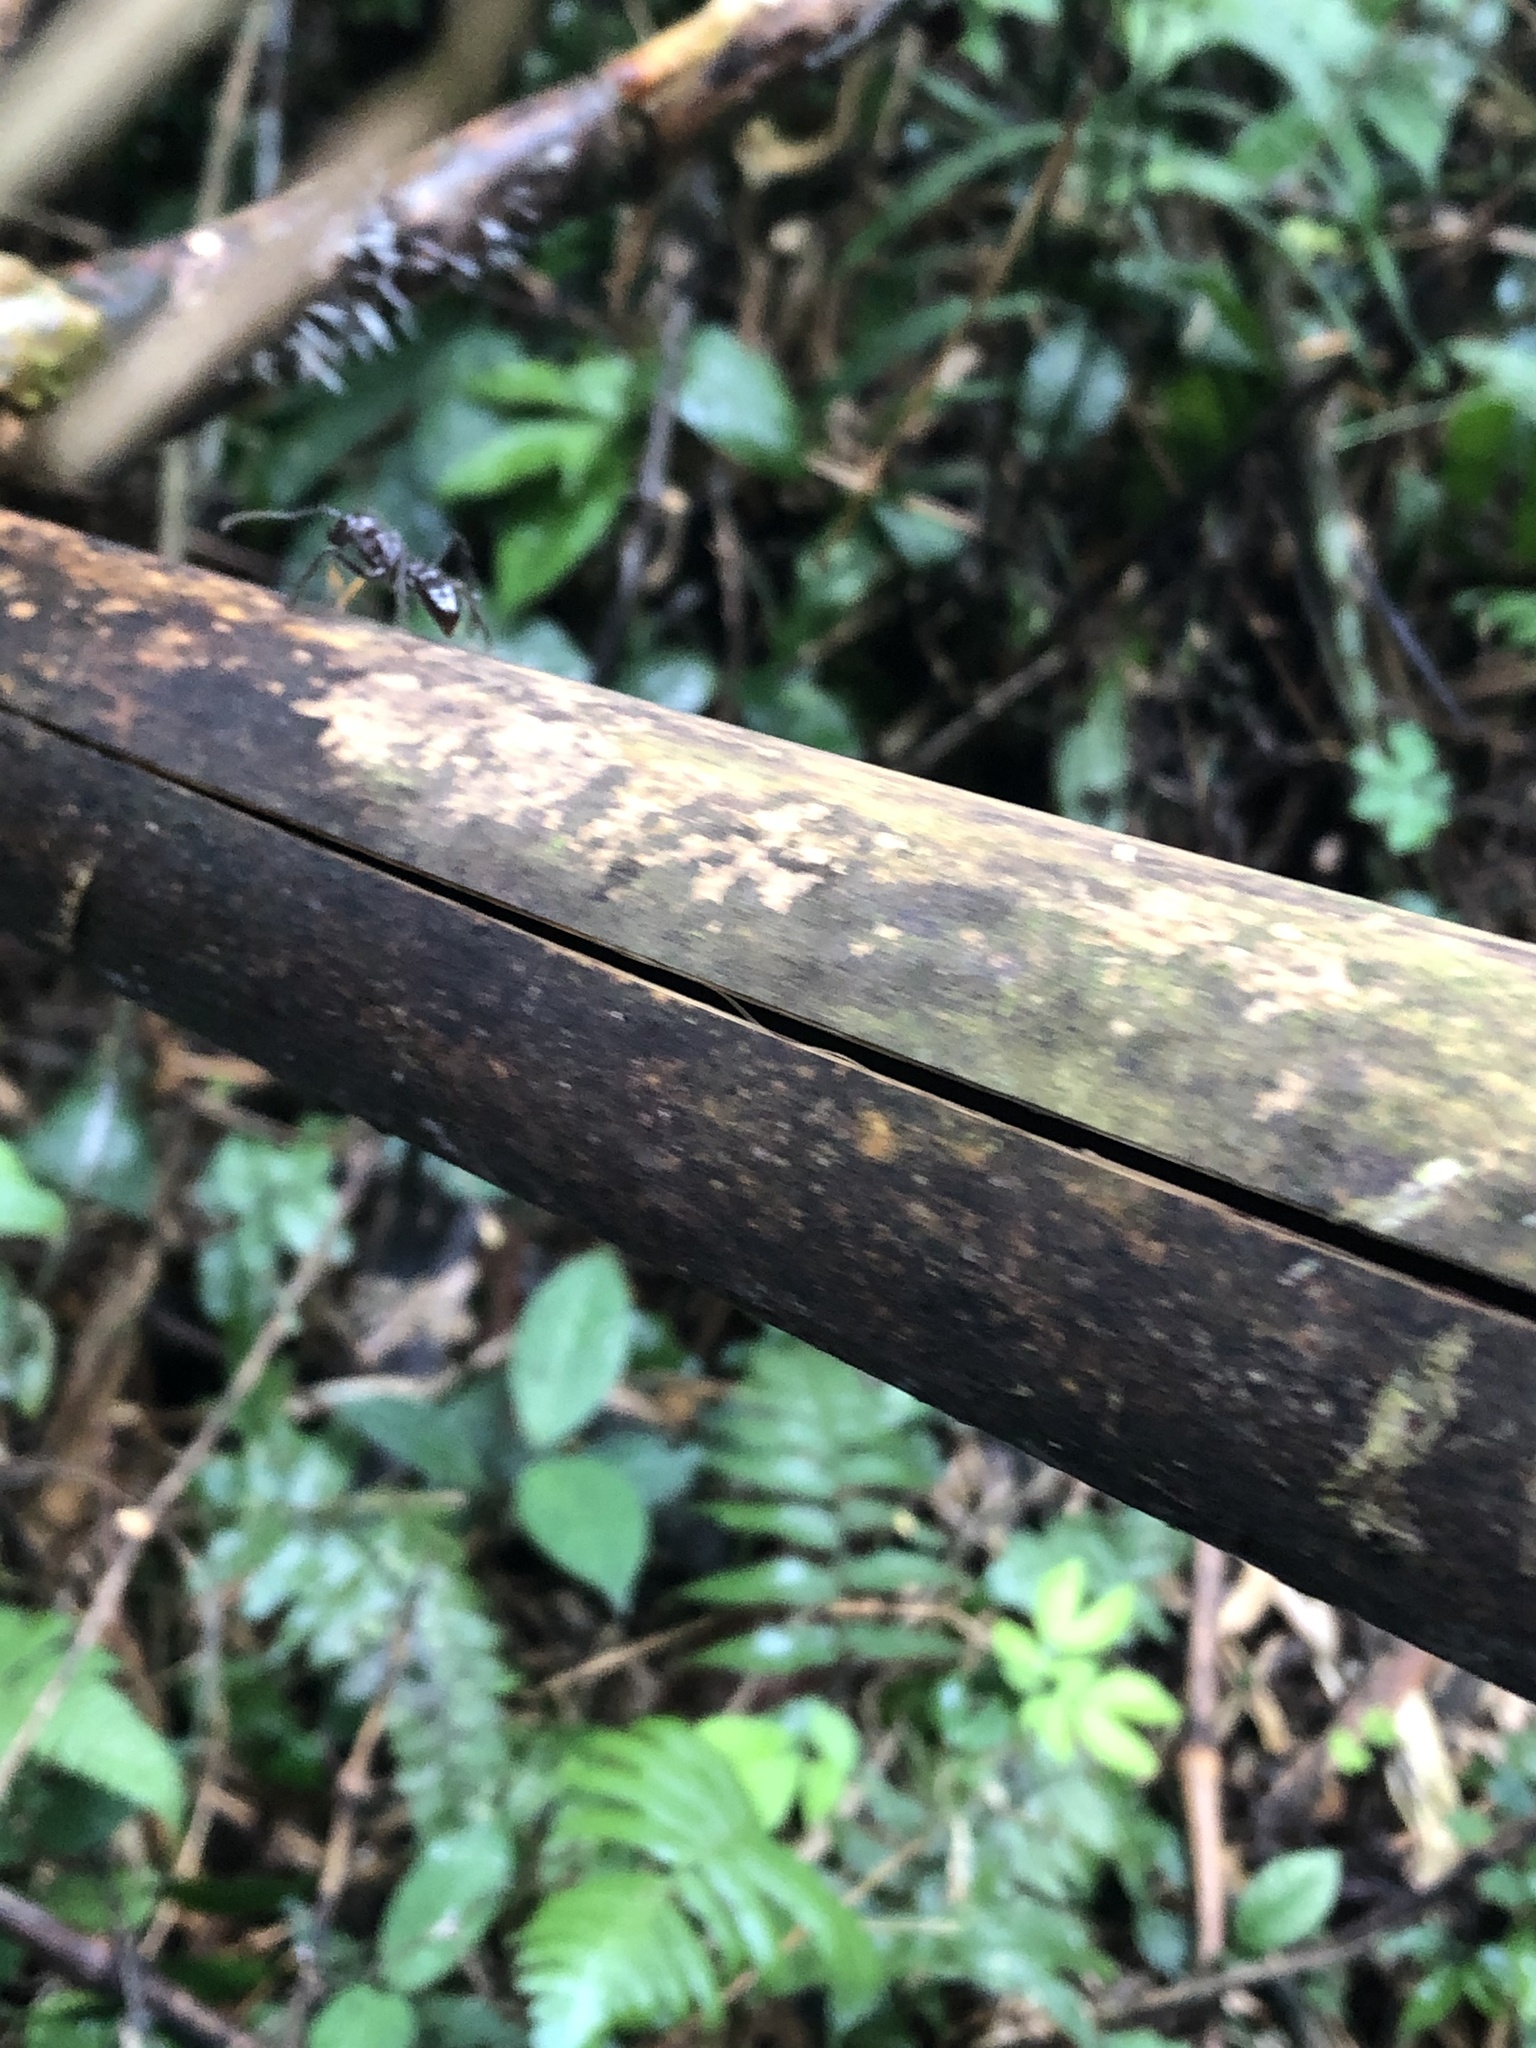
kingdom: Animalia
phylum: Arthropoda
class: Insecta
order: Hymenoptera
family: Formicidae
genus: Paraponera
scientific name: Paraponera clavata
